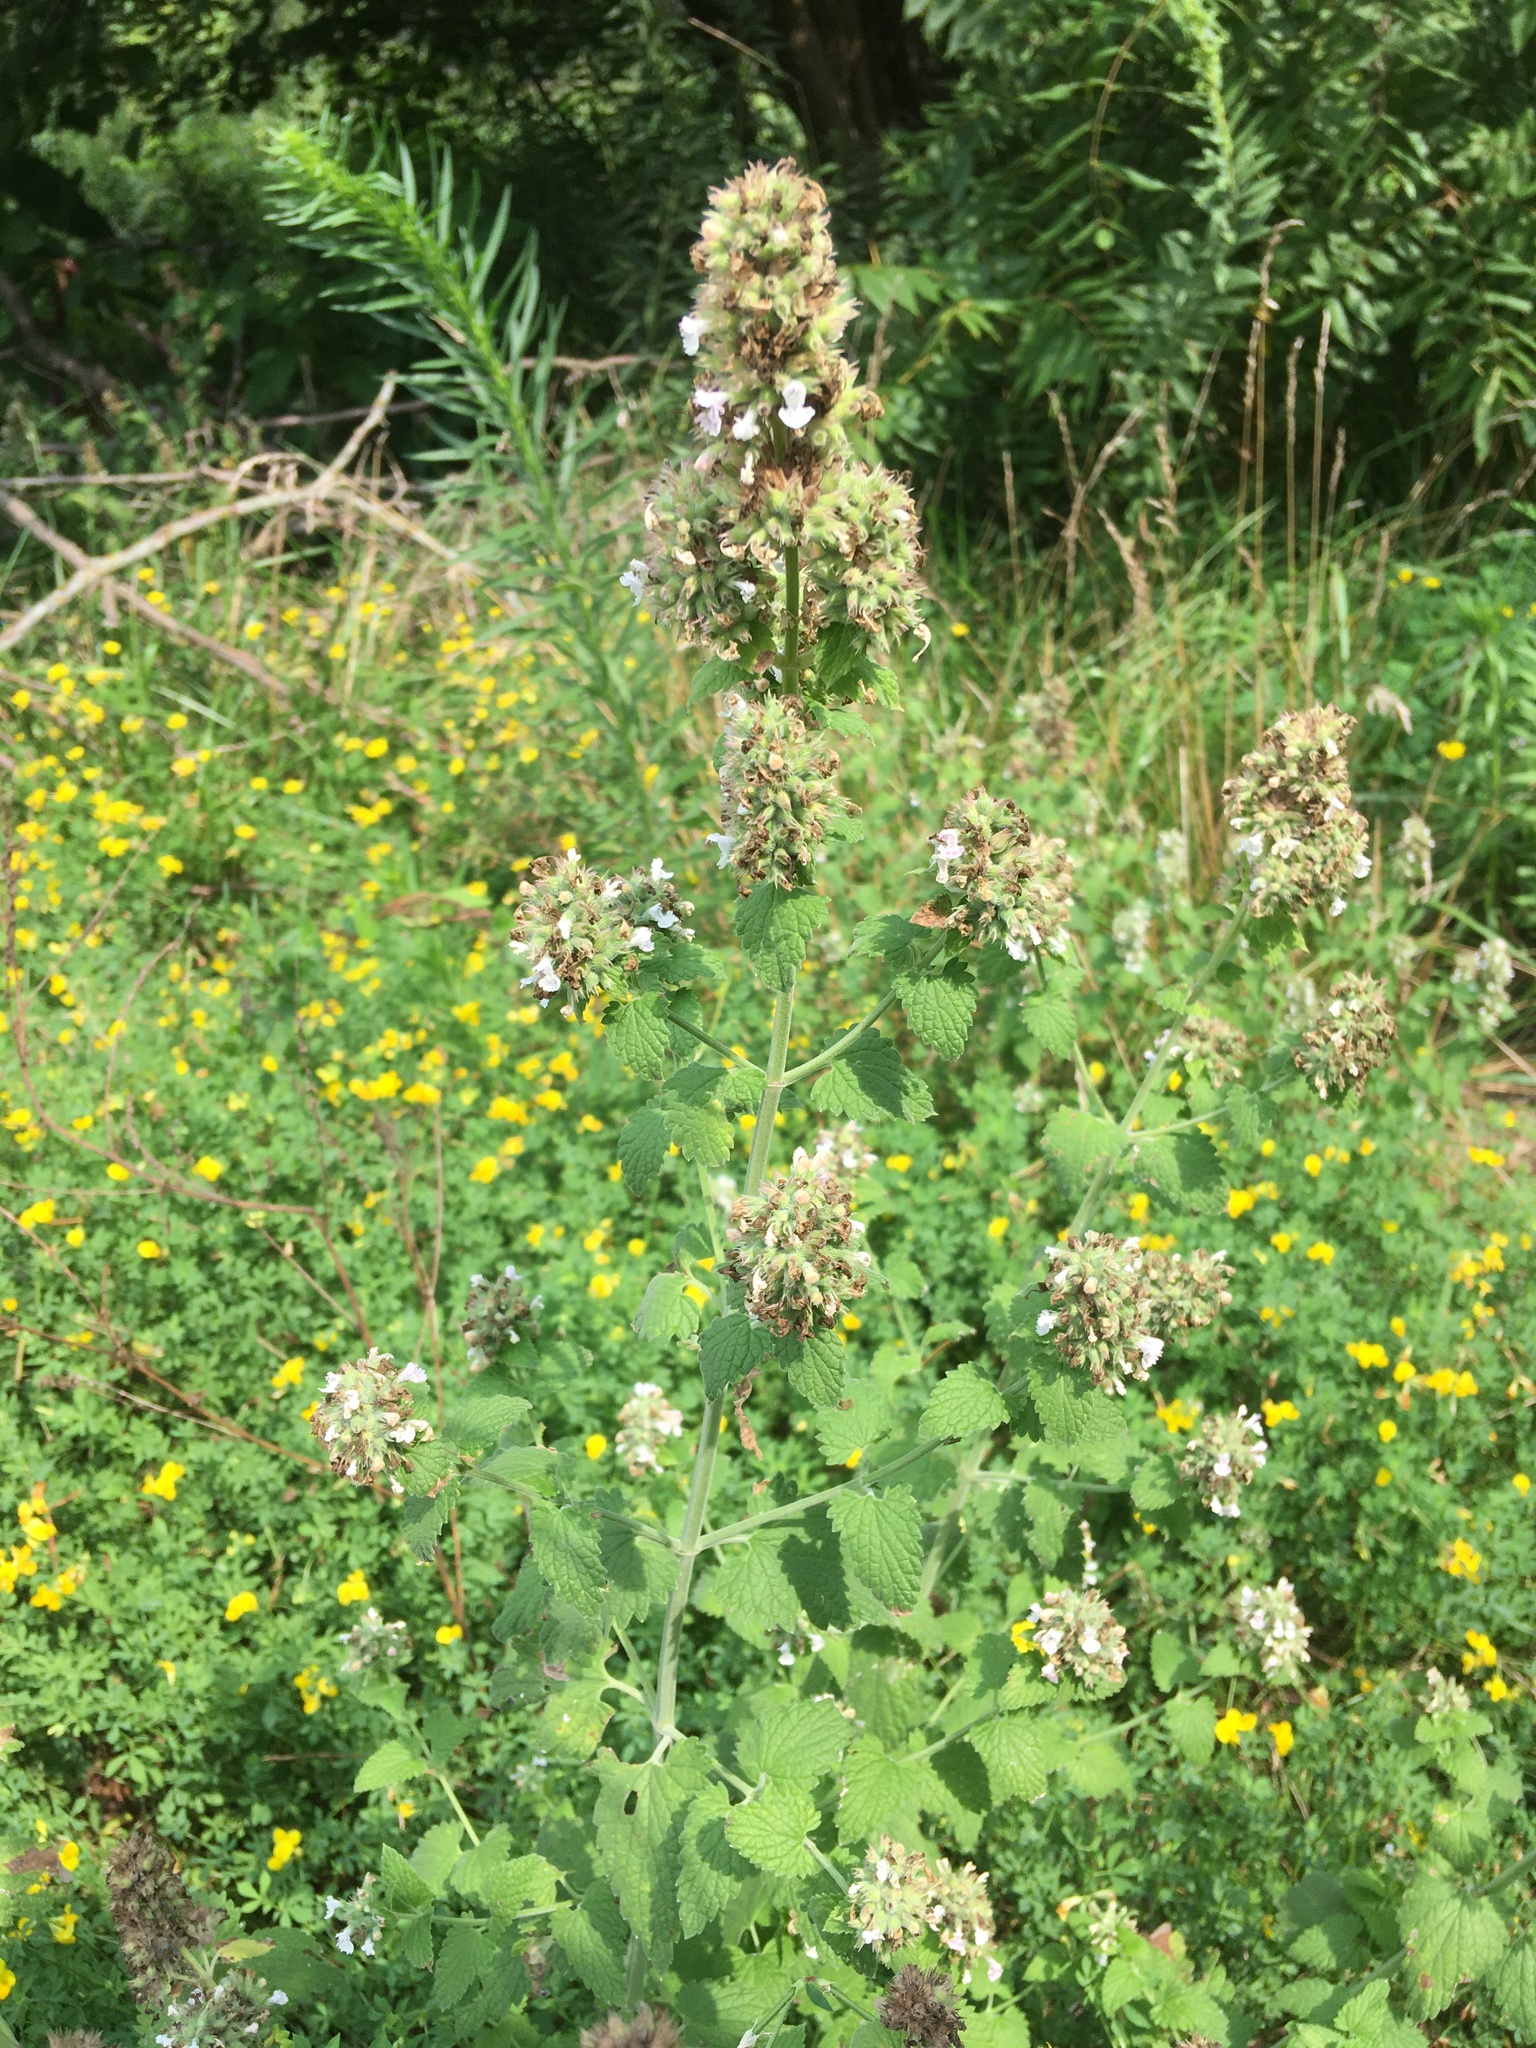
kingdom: Plantae
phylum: Tracheophyta
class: Magnoliopsida
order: Lamiales
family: Lamiaceae
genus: Nepeta
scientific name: Nepeta cataria
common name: Catnip
